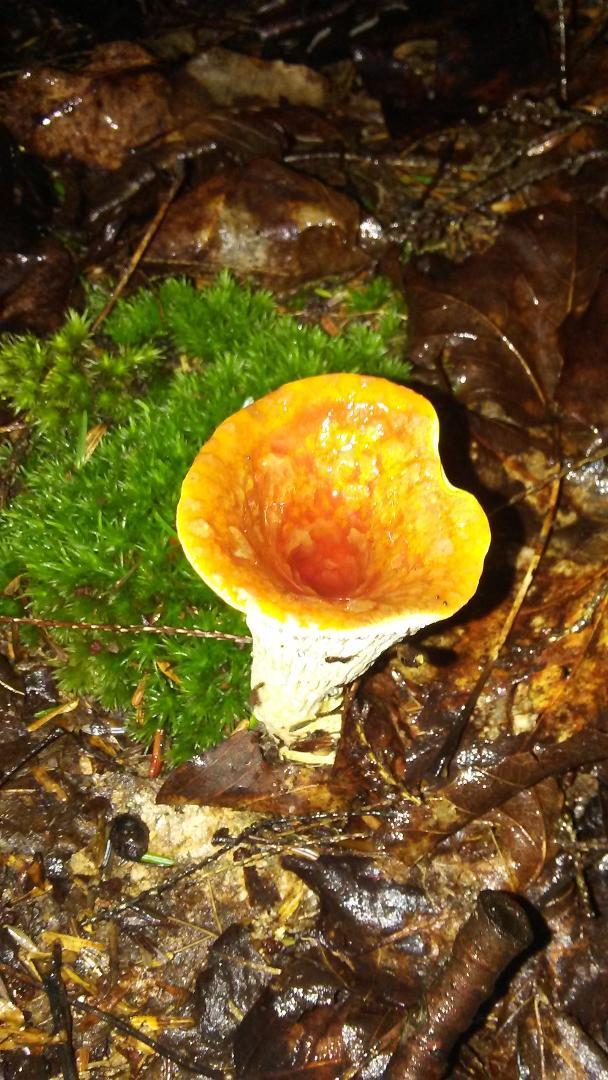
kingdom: Fungi
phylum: Basidiomycota
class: Agaricomycetes
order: Gomphales
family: Gomphaceae
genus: Turbinellus
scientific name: Turbinellus floccosus
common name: Scaly chanterelle
